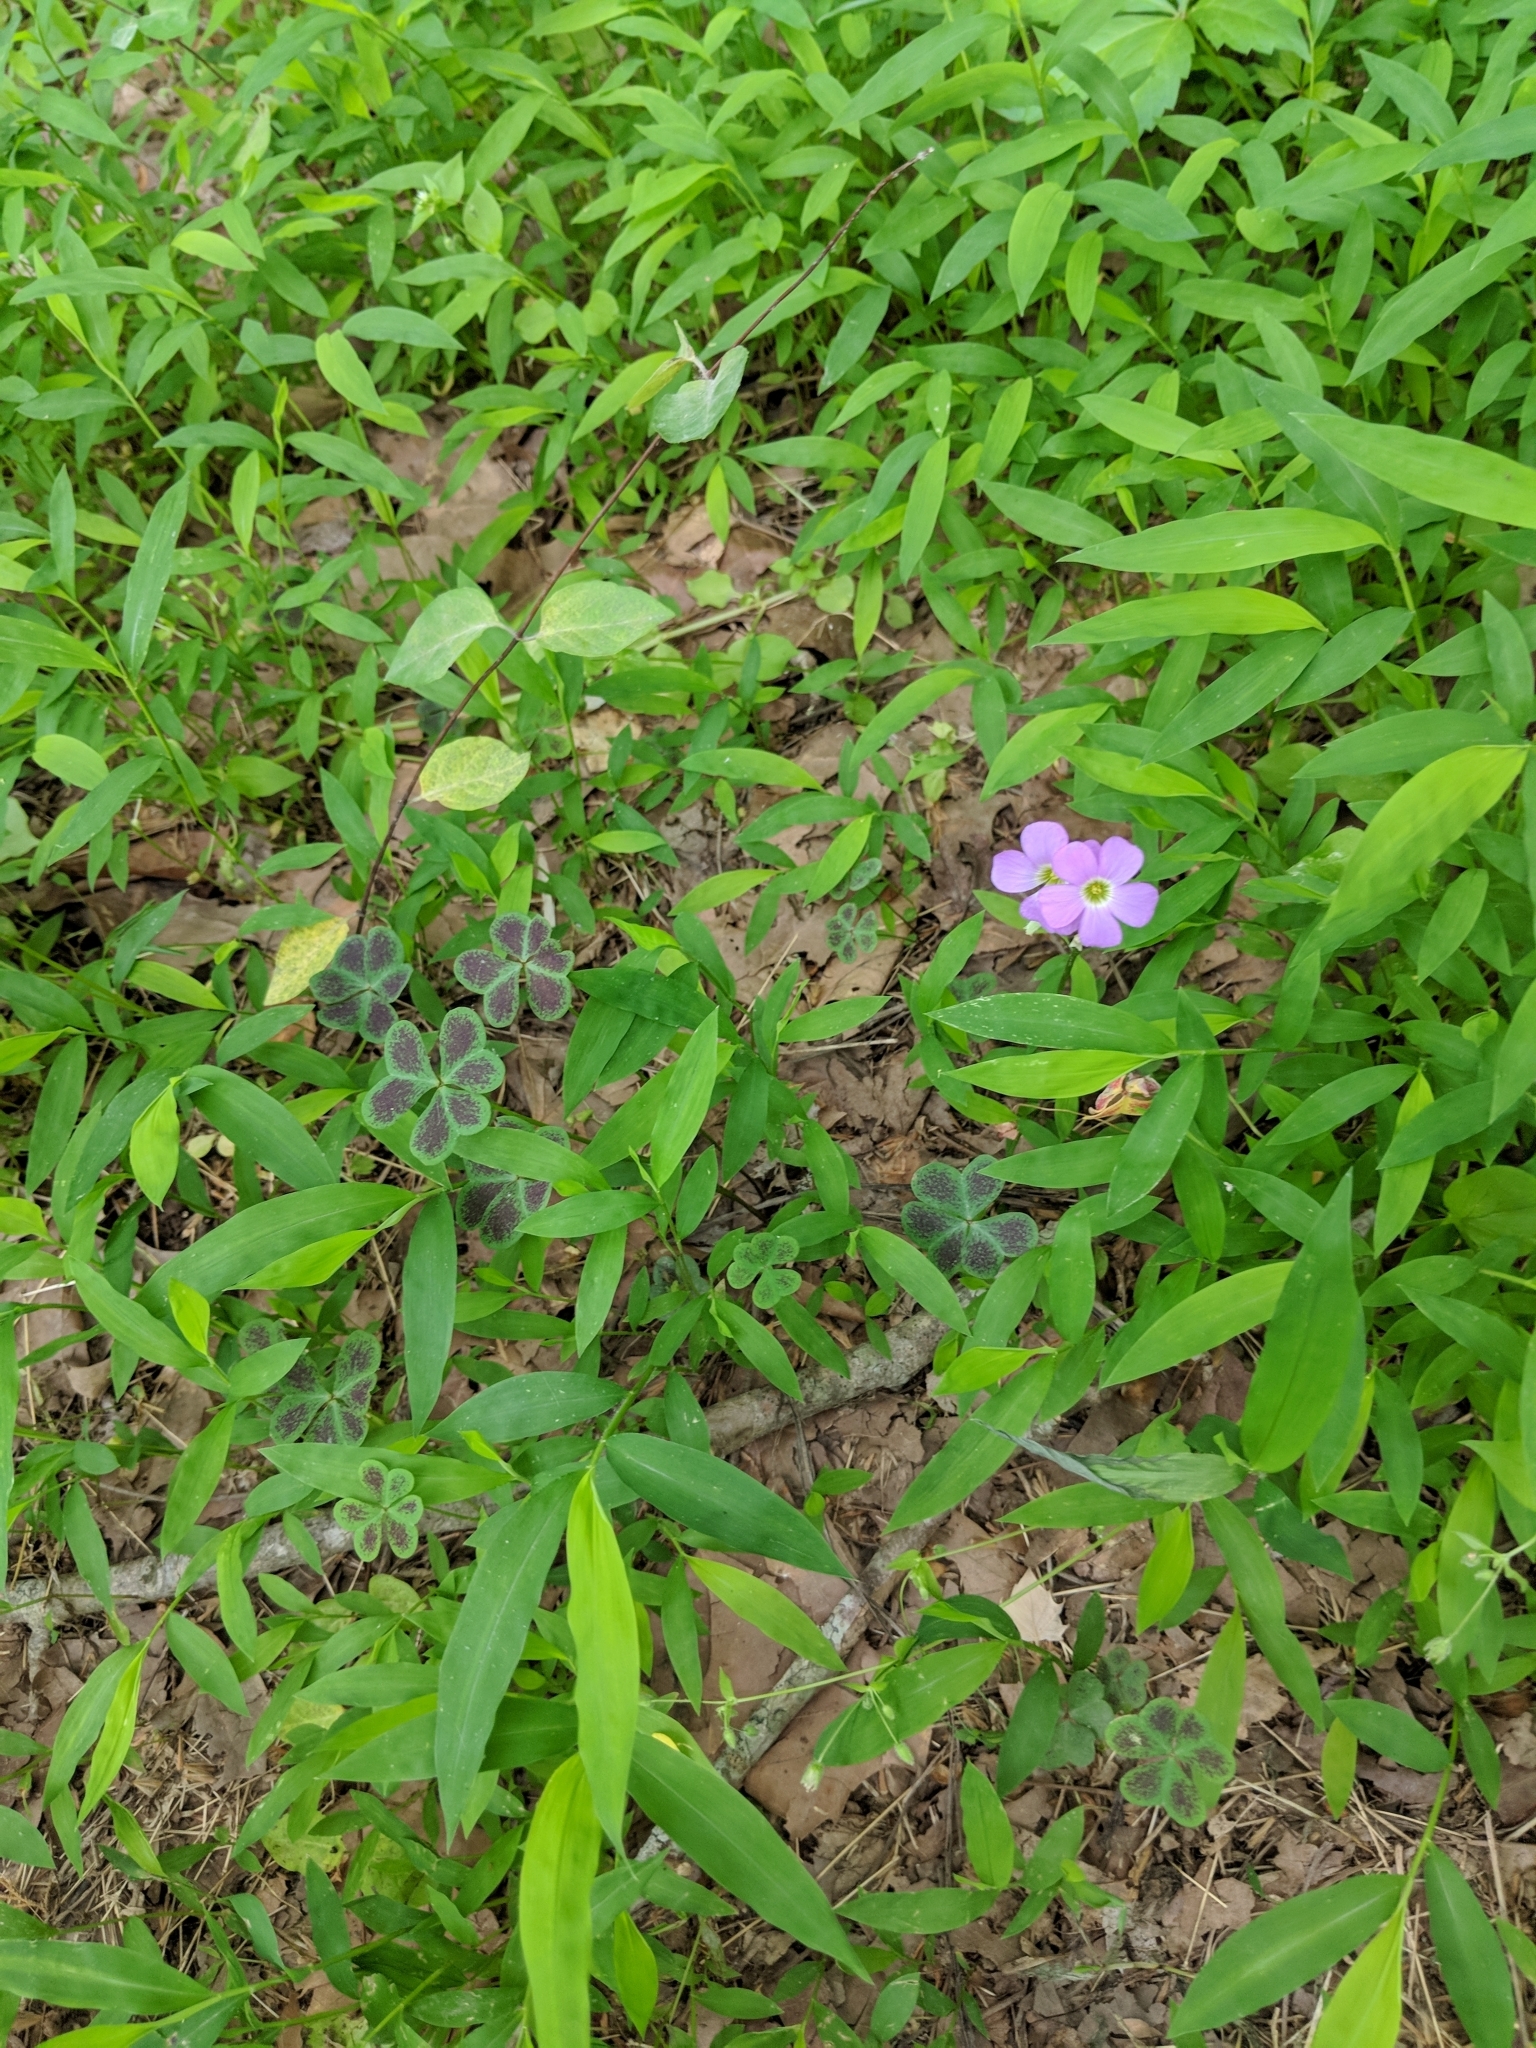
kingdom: Plantae
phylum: Tracheophyta
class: Magnoliopsida
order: Oxalidales
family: Oxalidaceae
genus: Oxalis
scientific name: Oxalis violacea
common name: Violet wood-sorrel
